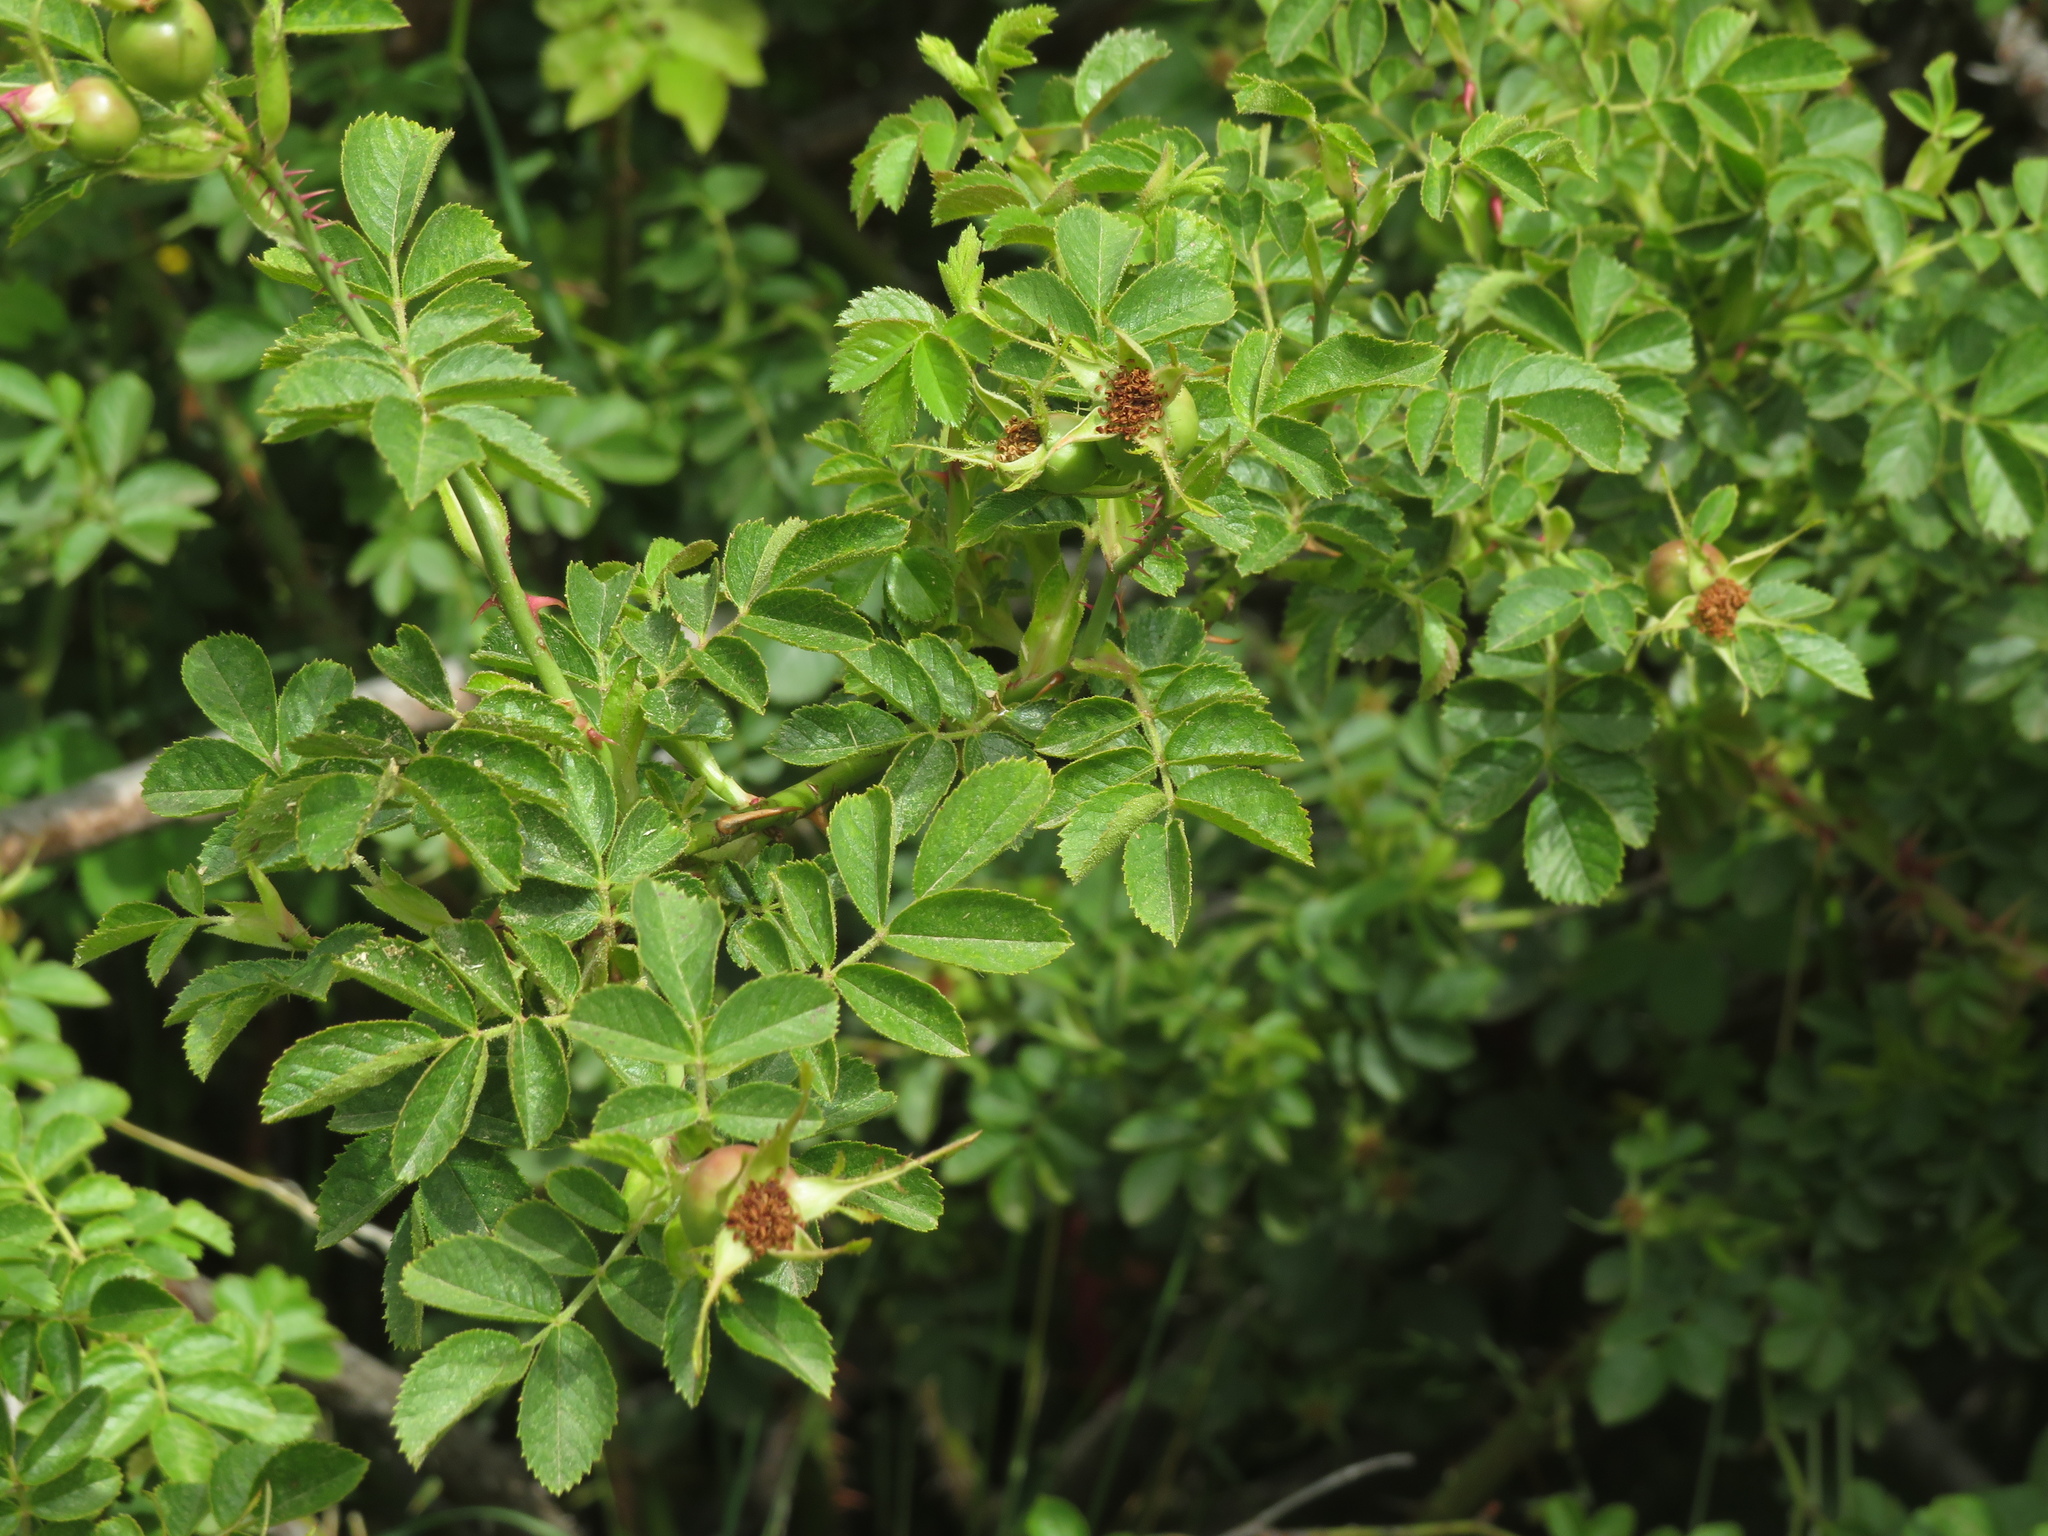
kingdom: Plantae
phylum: Tracheophyta
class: Magnoliopsida
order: Rosales
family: Rosaceae
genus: Rosa
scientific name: Rosa rubiginosa
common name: Sweet-briar
